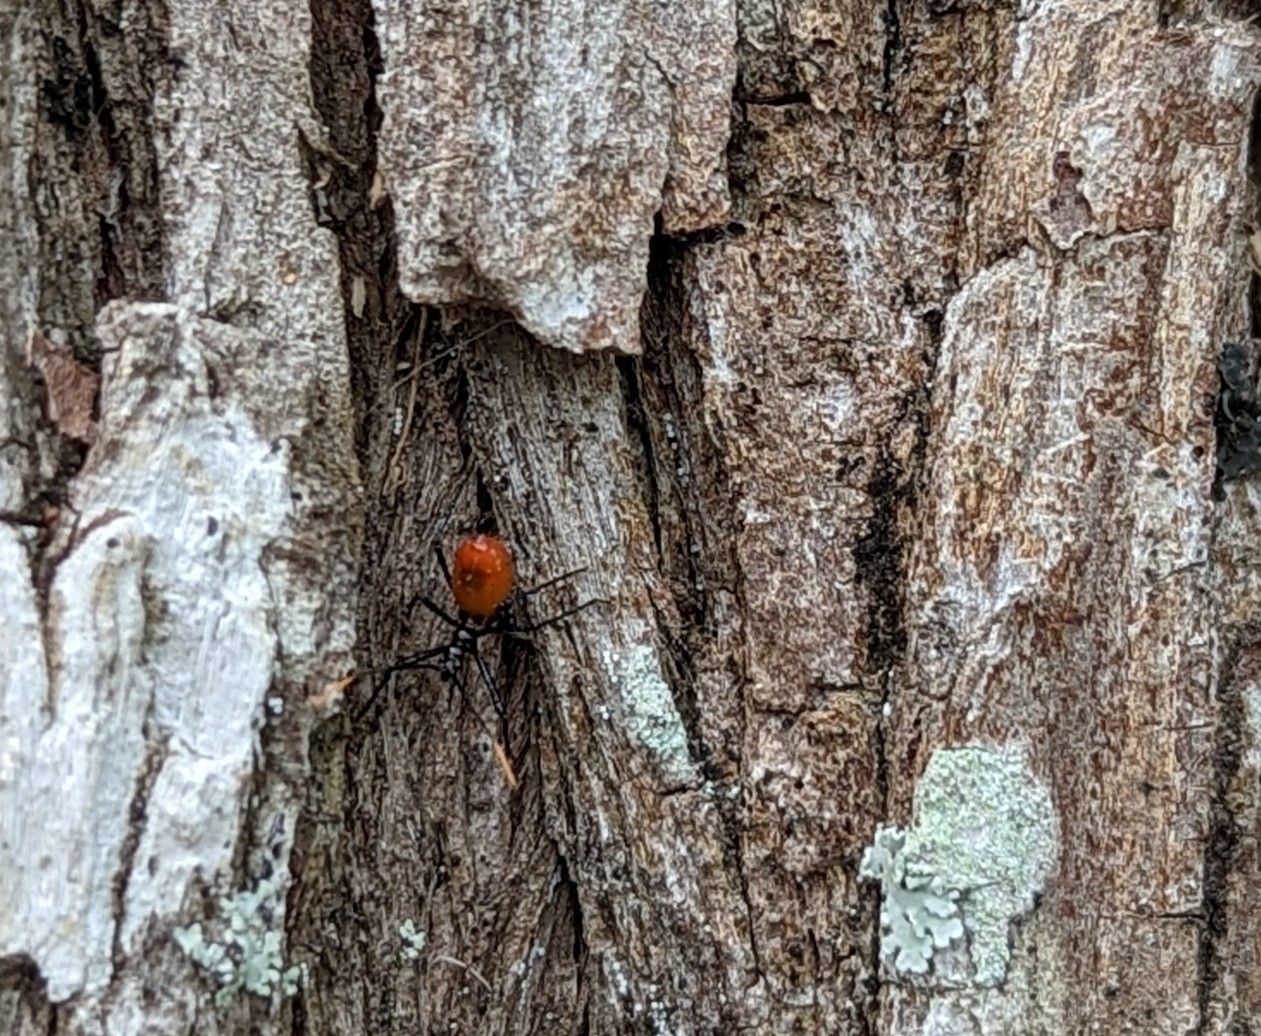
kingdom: Animalia
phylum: Arthropoda
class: Insecta
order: Hemiptera
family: Reduviidae
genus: Arilus
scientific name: Arilus cristatus
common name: North american wheel bug
